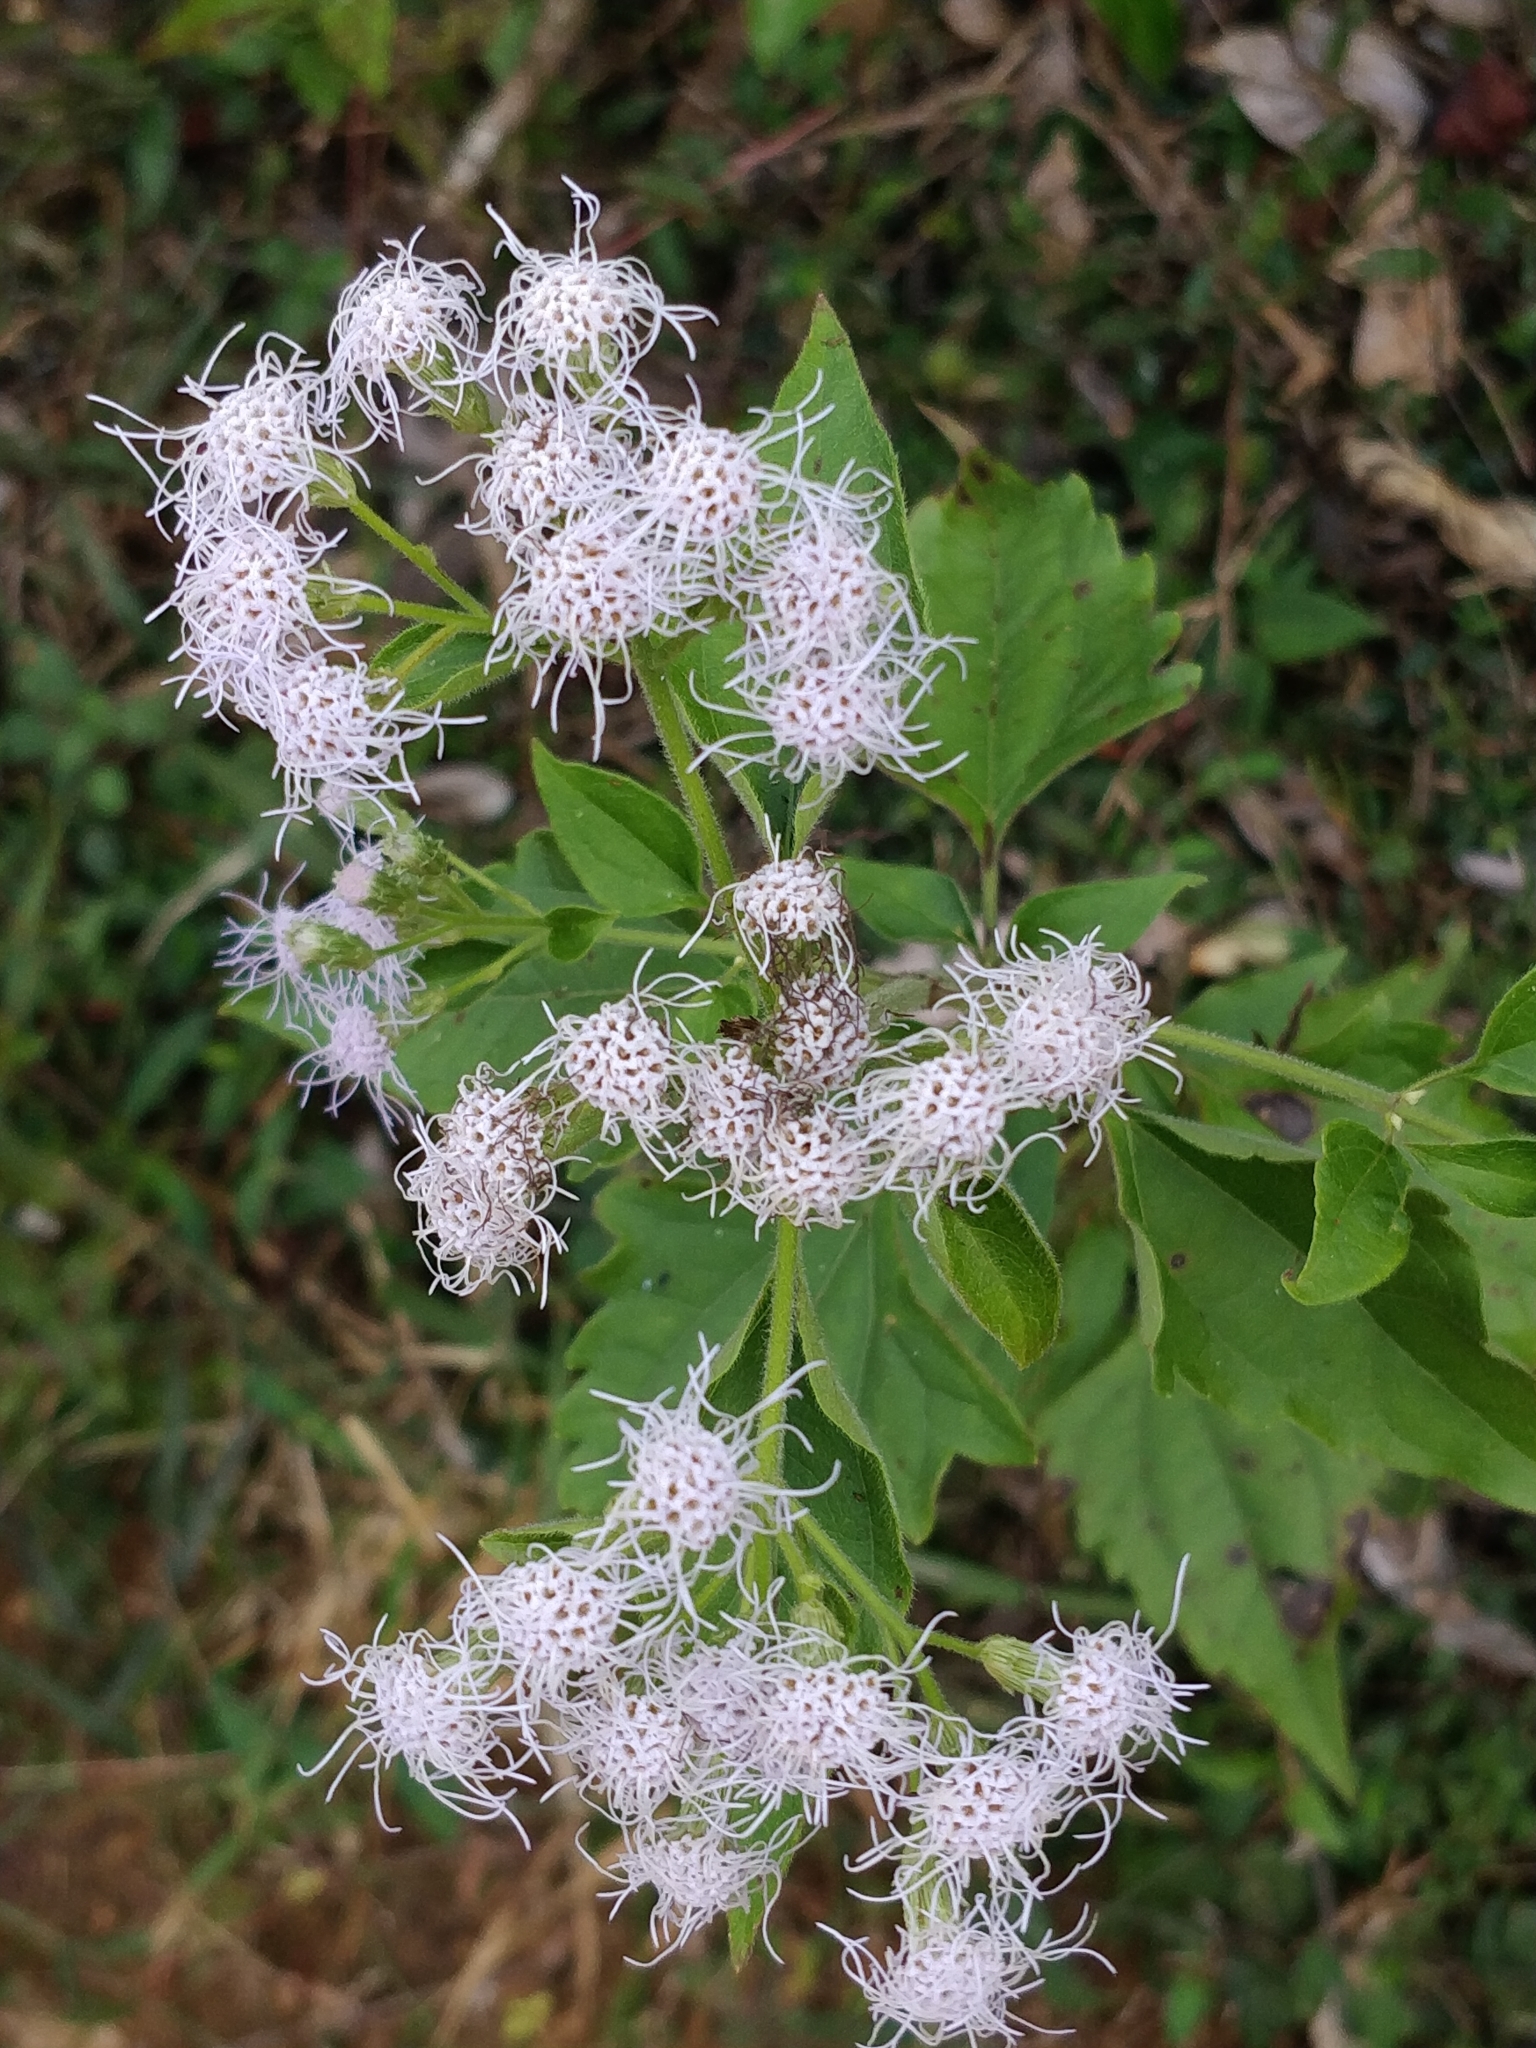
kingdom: Plantae
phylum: Tracheophyta
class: Magnoliopsida
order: Asterales
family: Asteraceae
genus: Chromolaena
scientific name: Chromolaena odorata
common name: Siamweed
